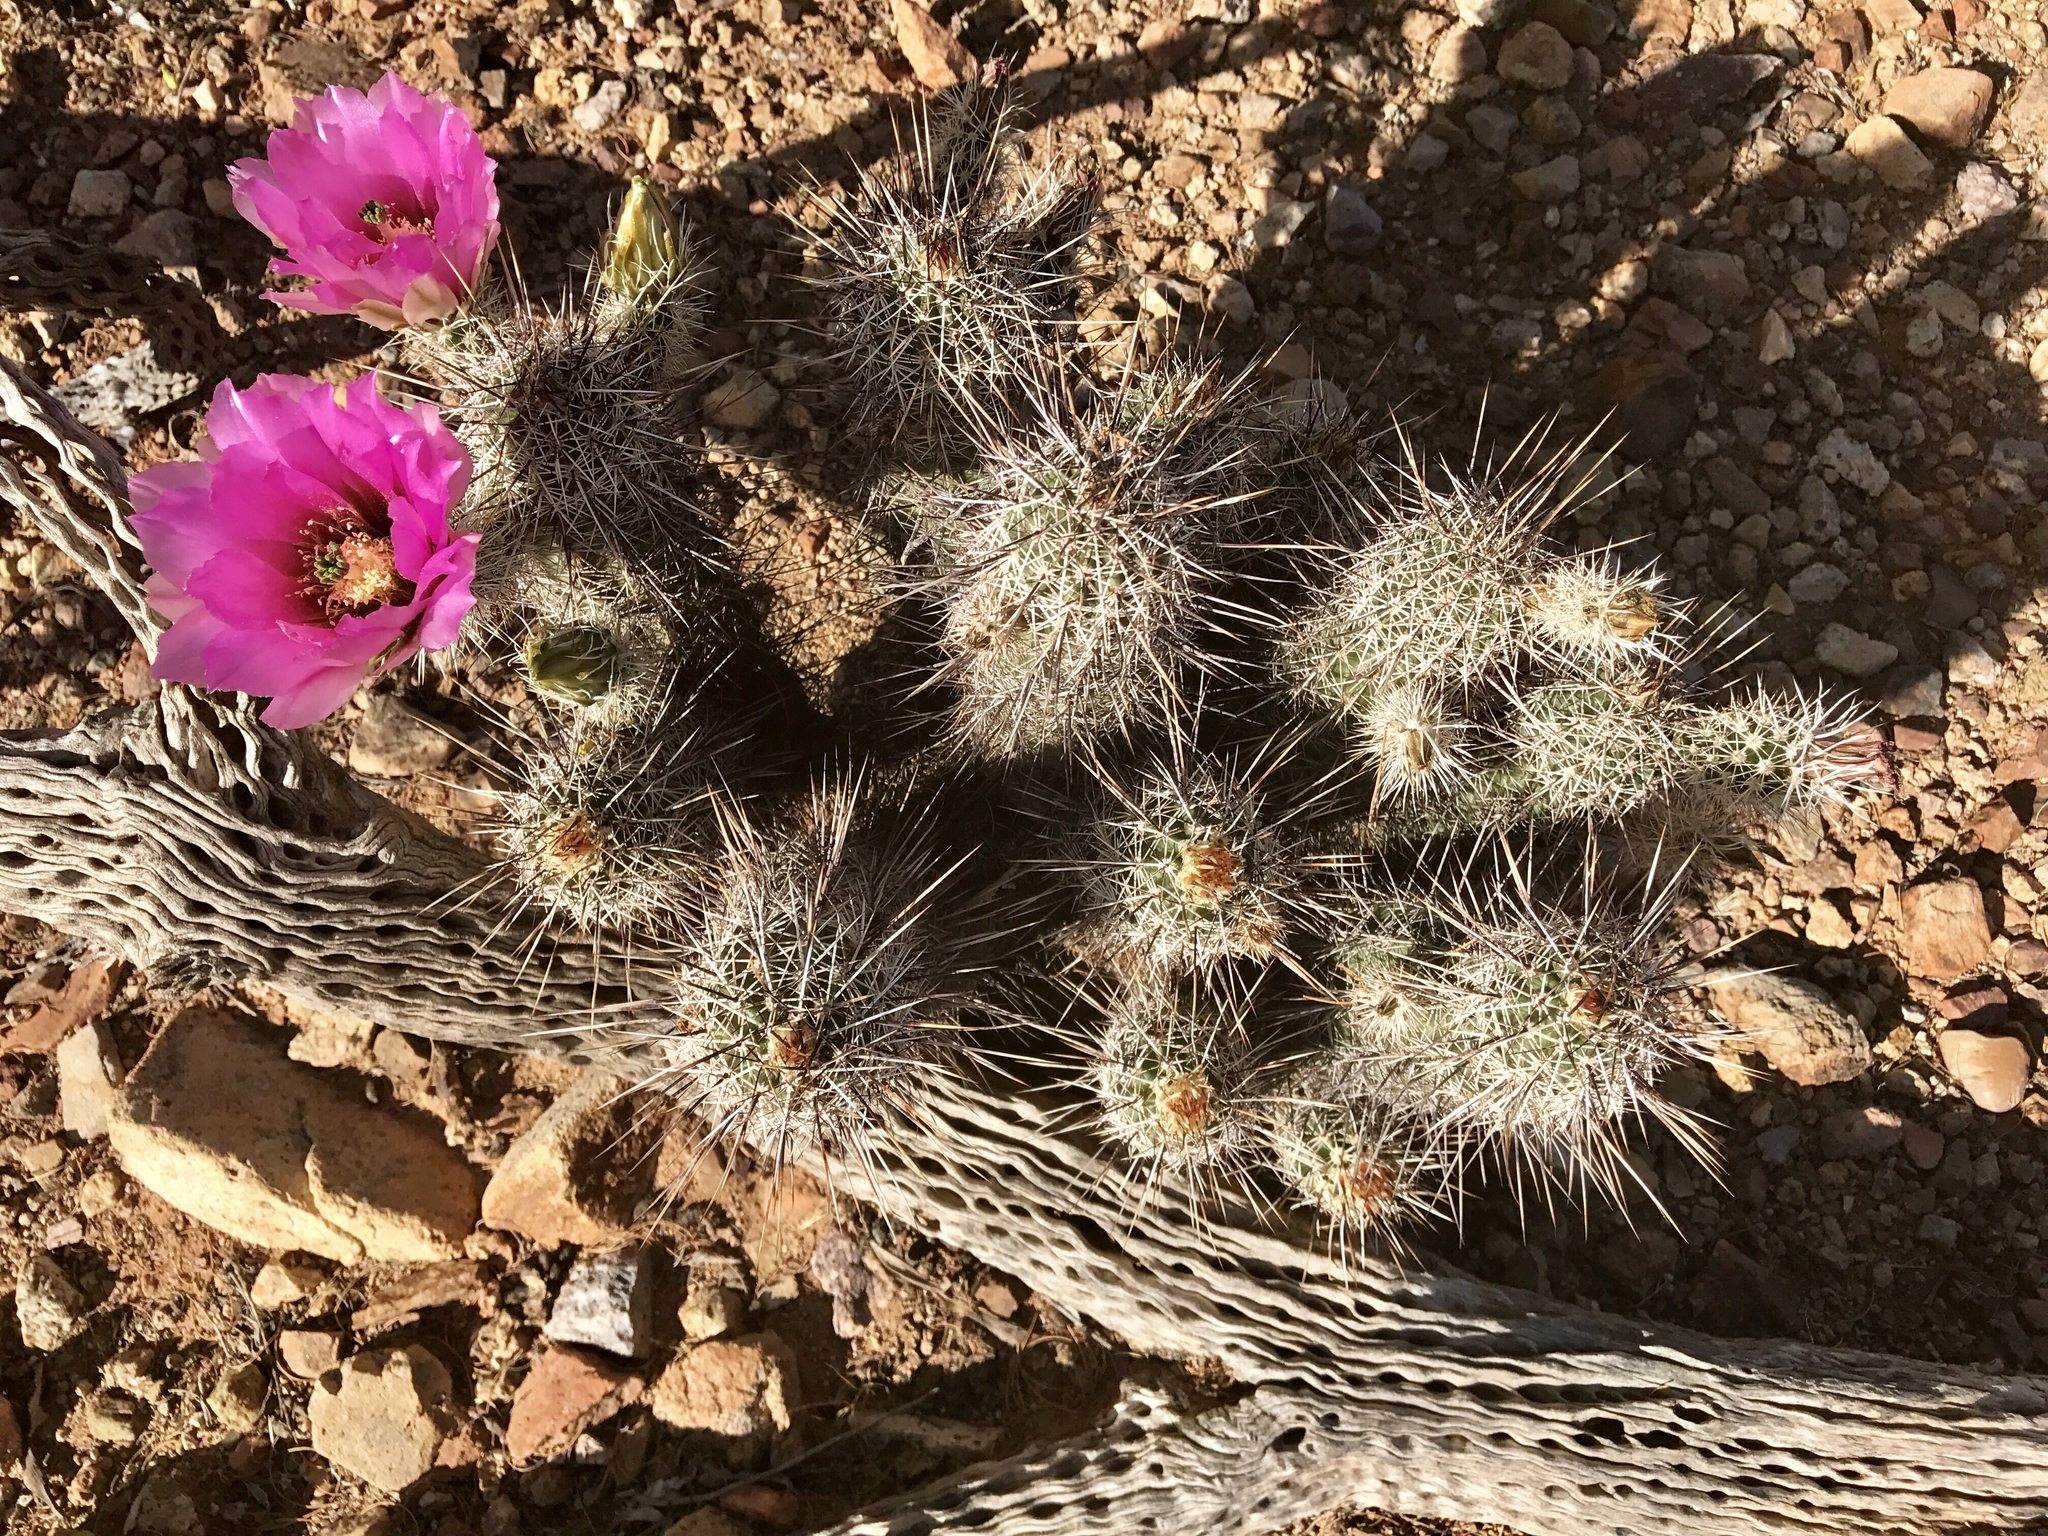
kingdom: Plantae
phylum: Tracheophyta
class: Magnoliopsida
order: Caryophyllales
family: Cactaceae
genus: Echinocereus
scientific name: Echinocereus fasciculatus
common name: Bundle hedgehog
